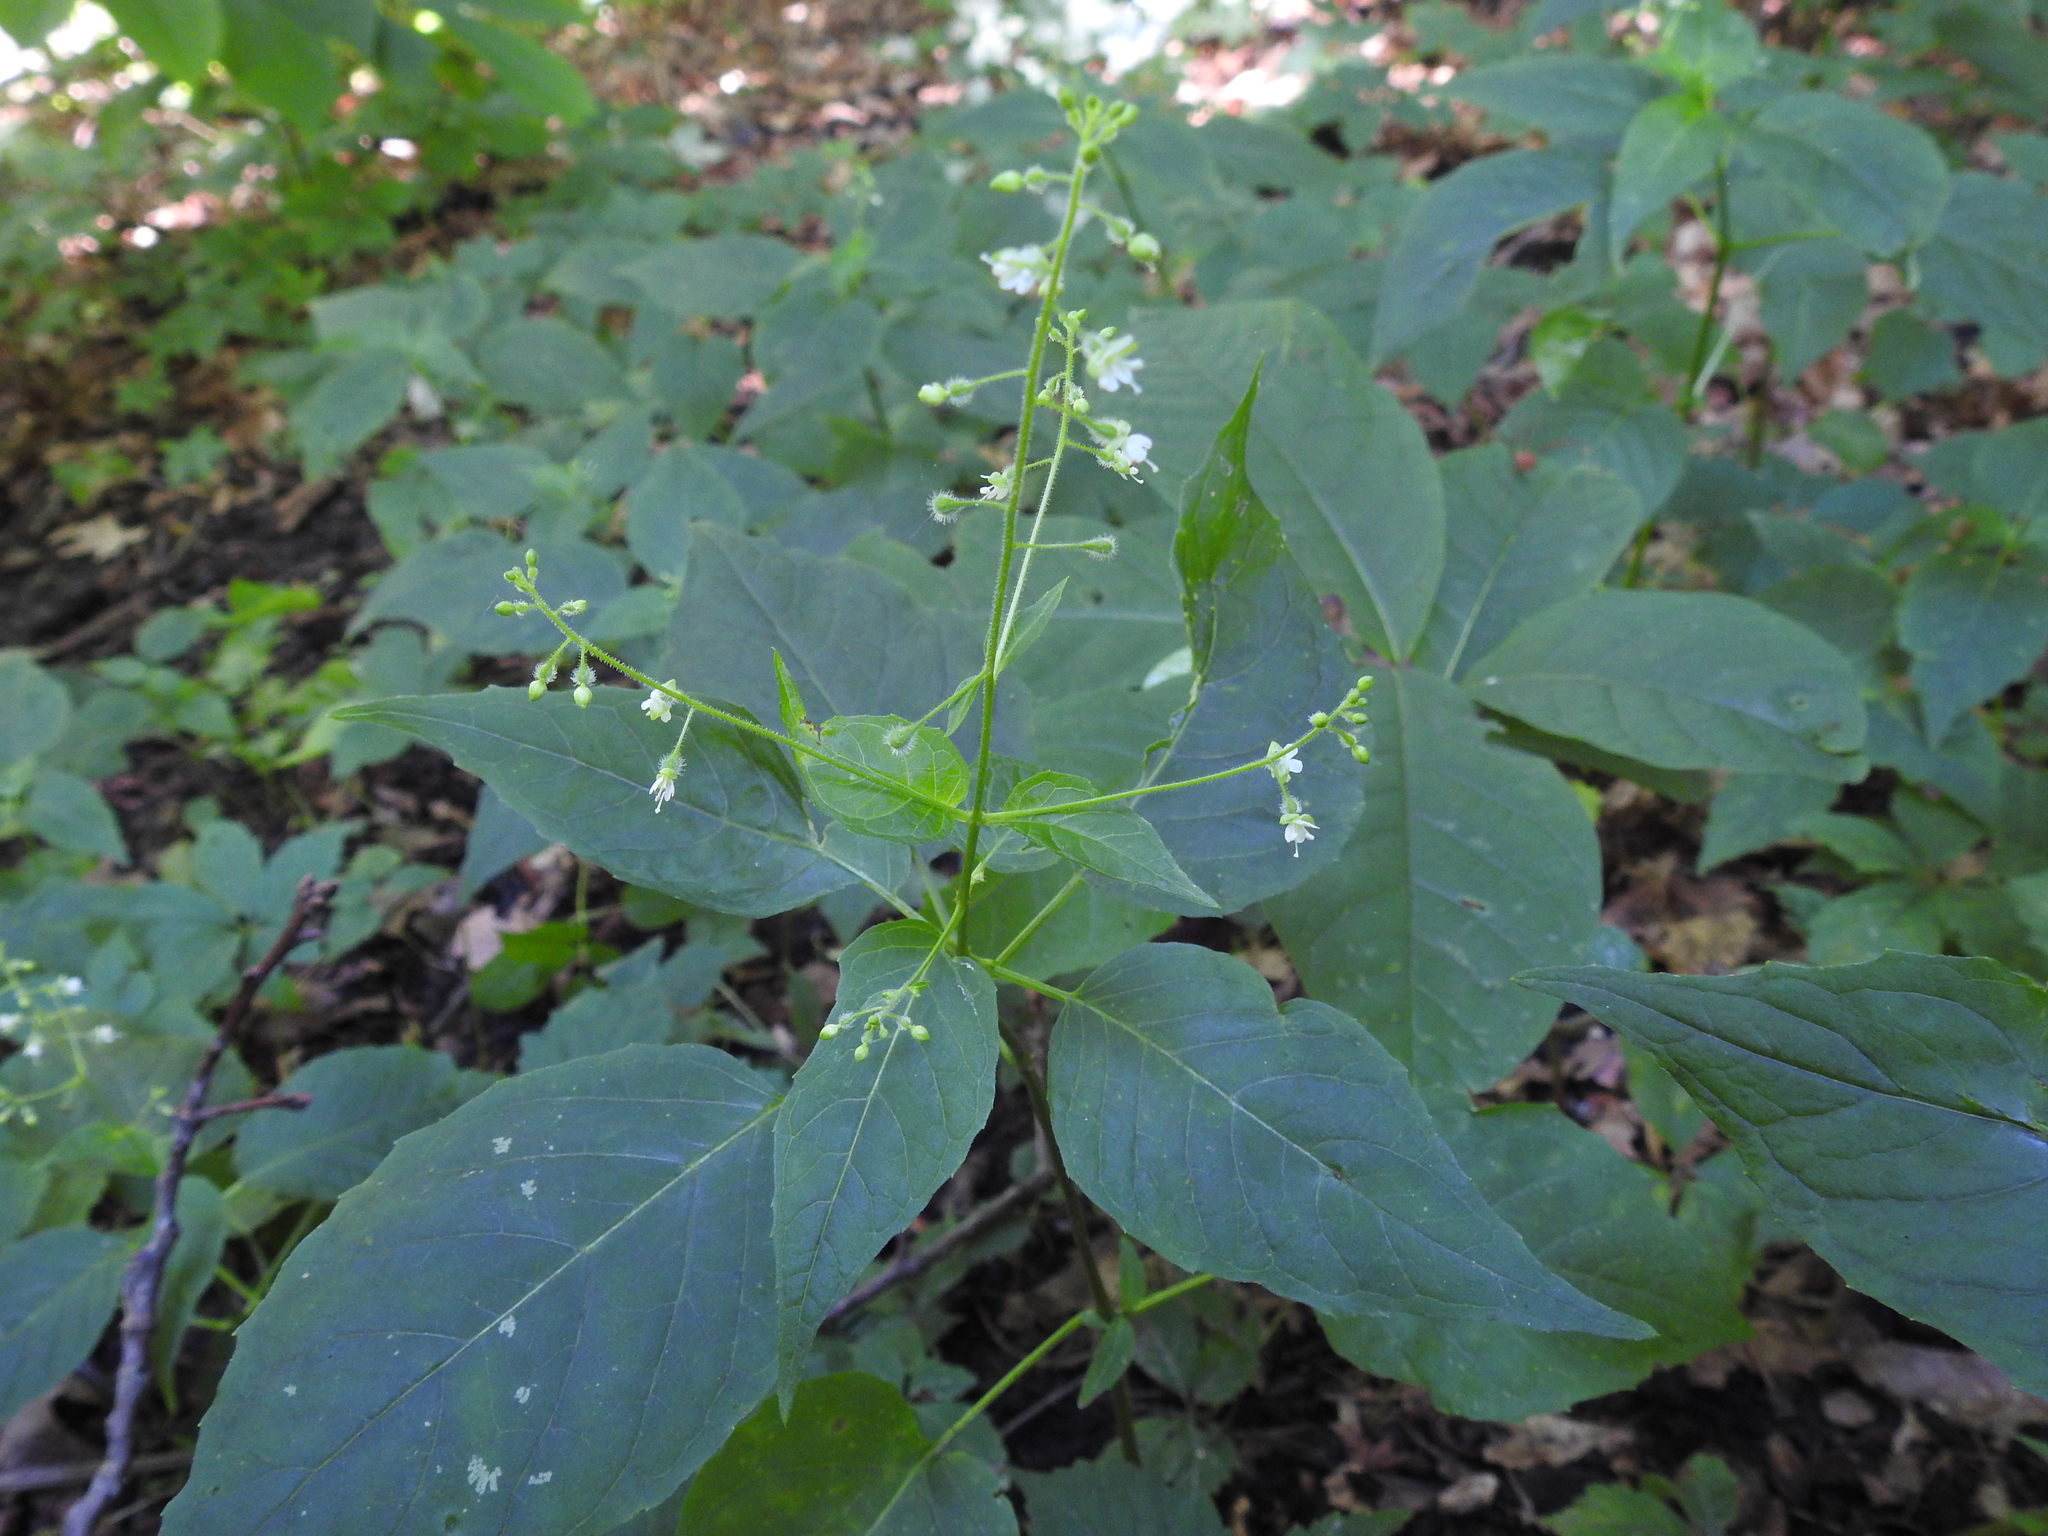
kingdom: Plantae
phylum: Tracheophyta
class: Magnoliopsida
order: Myrtales
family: Onagraceae
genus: Circaea
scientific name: Circaea canadensis
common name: Broad-leaved enchanter's nightshade
